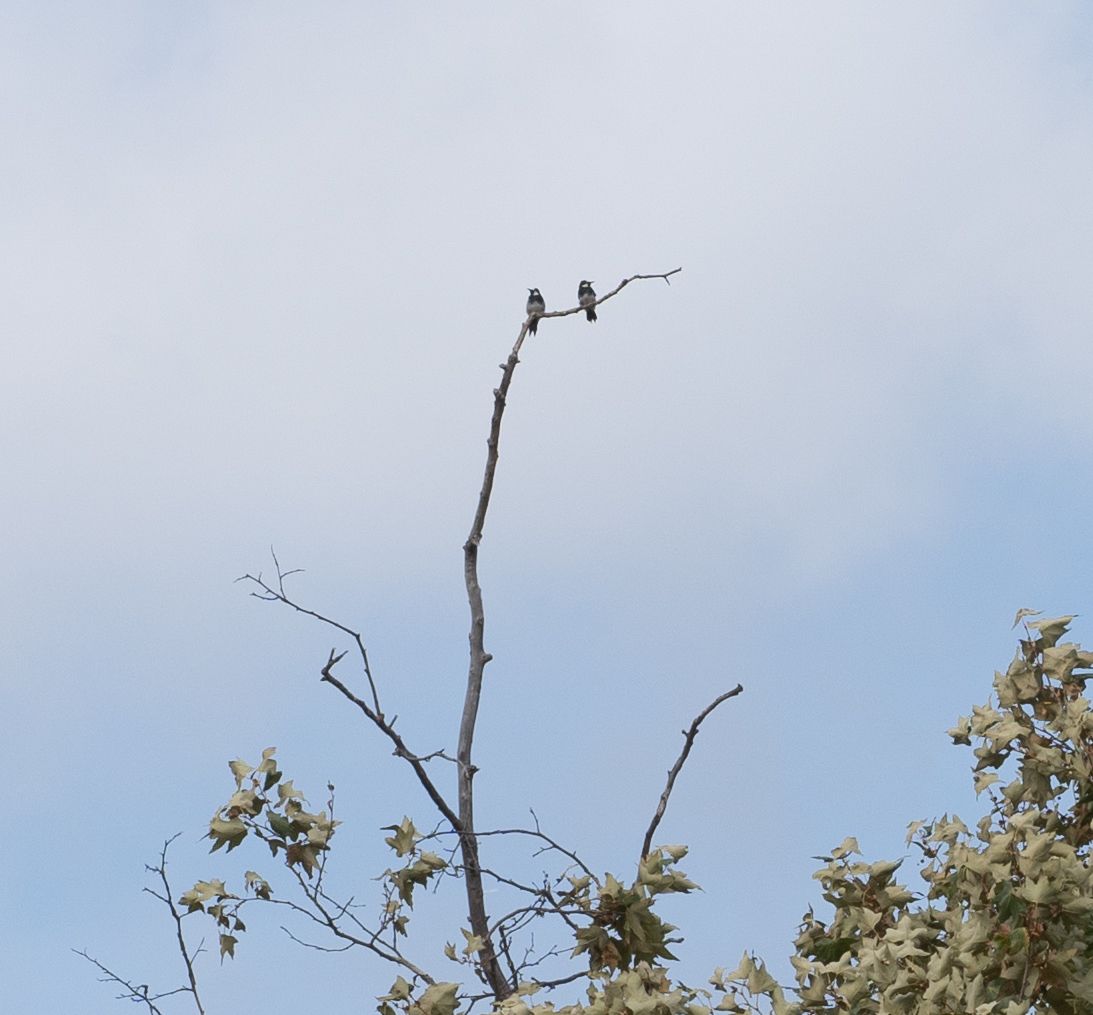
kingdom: Animalia
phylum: Chordata
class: Aves
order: Piciformes
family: Picidae
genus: Melanerpes
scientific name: Melanerpes formicivorus
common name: Acorn woodpecker
